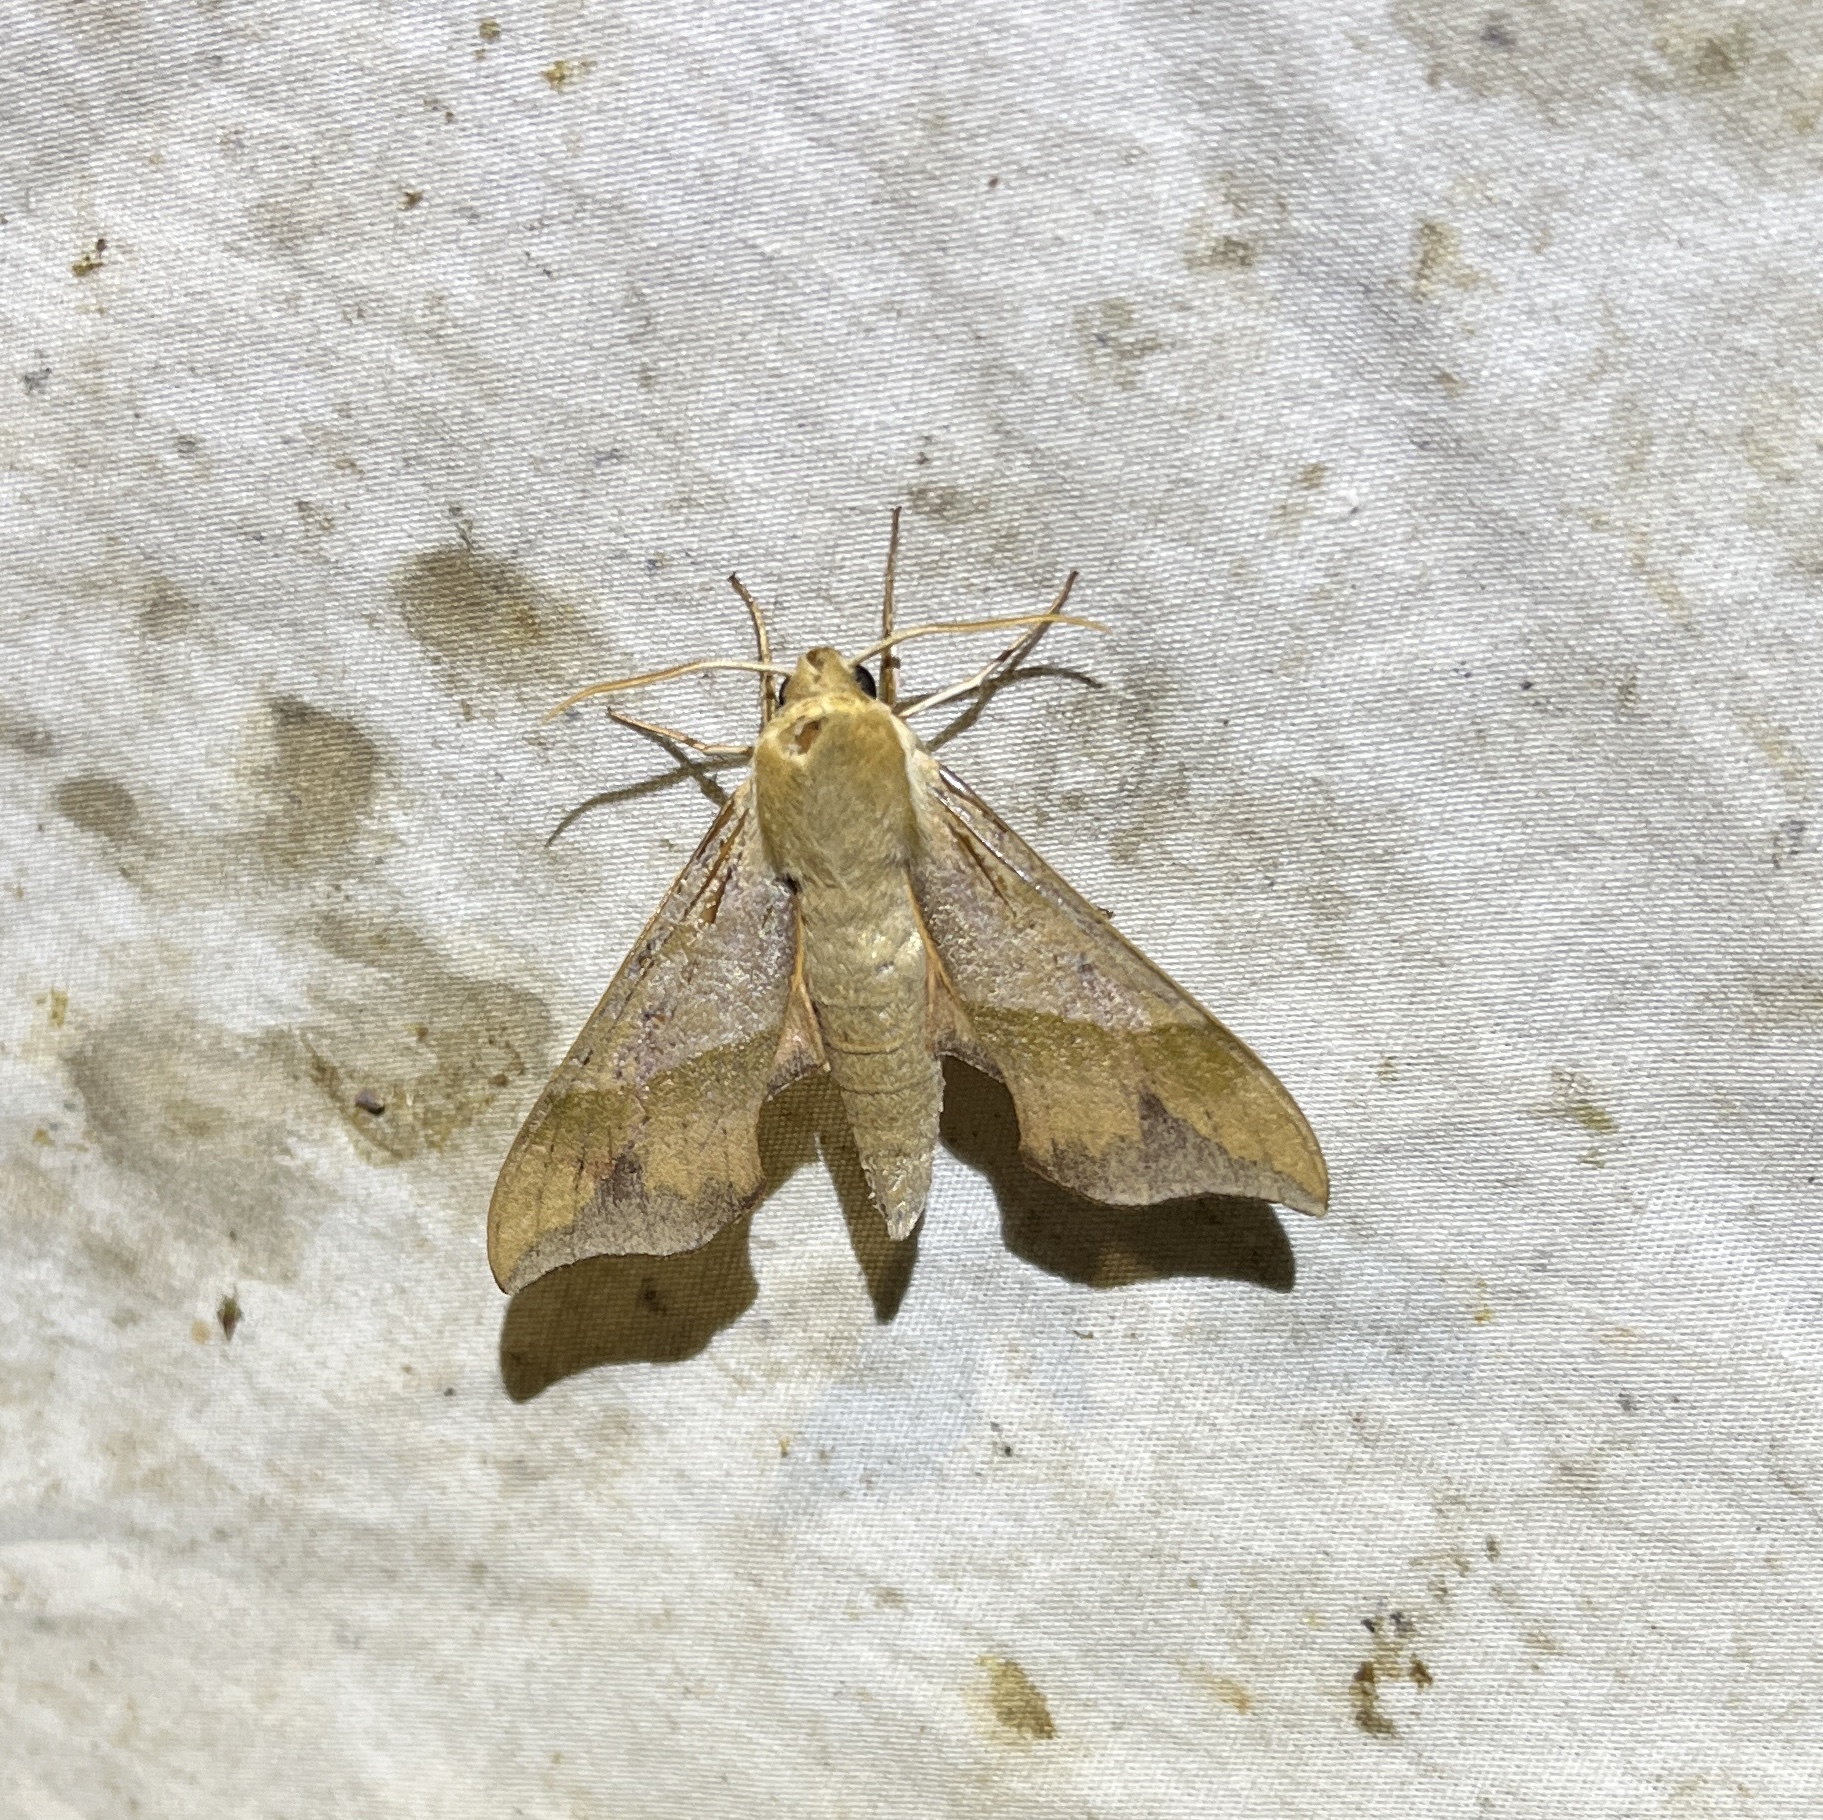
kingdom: Animalia
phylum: Arthropoda
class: Insecta
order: Lepidoptera
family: Sphingidae
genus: Darapsa
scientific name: Darapsa myron
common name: Hog sphinx
